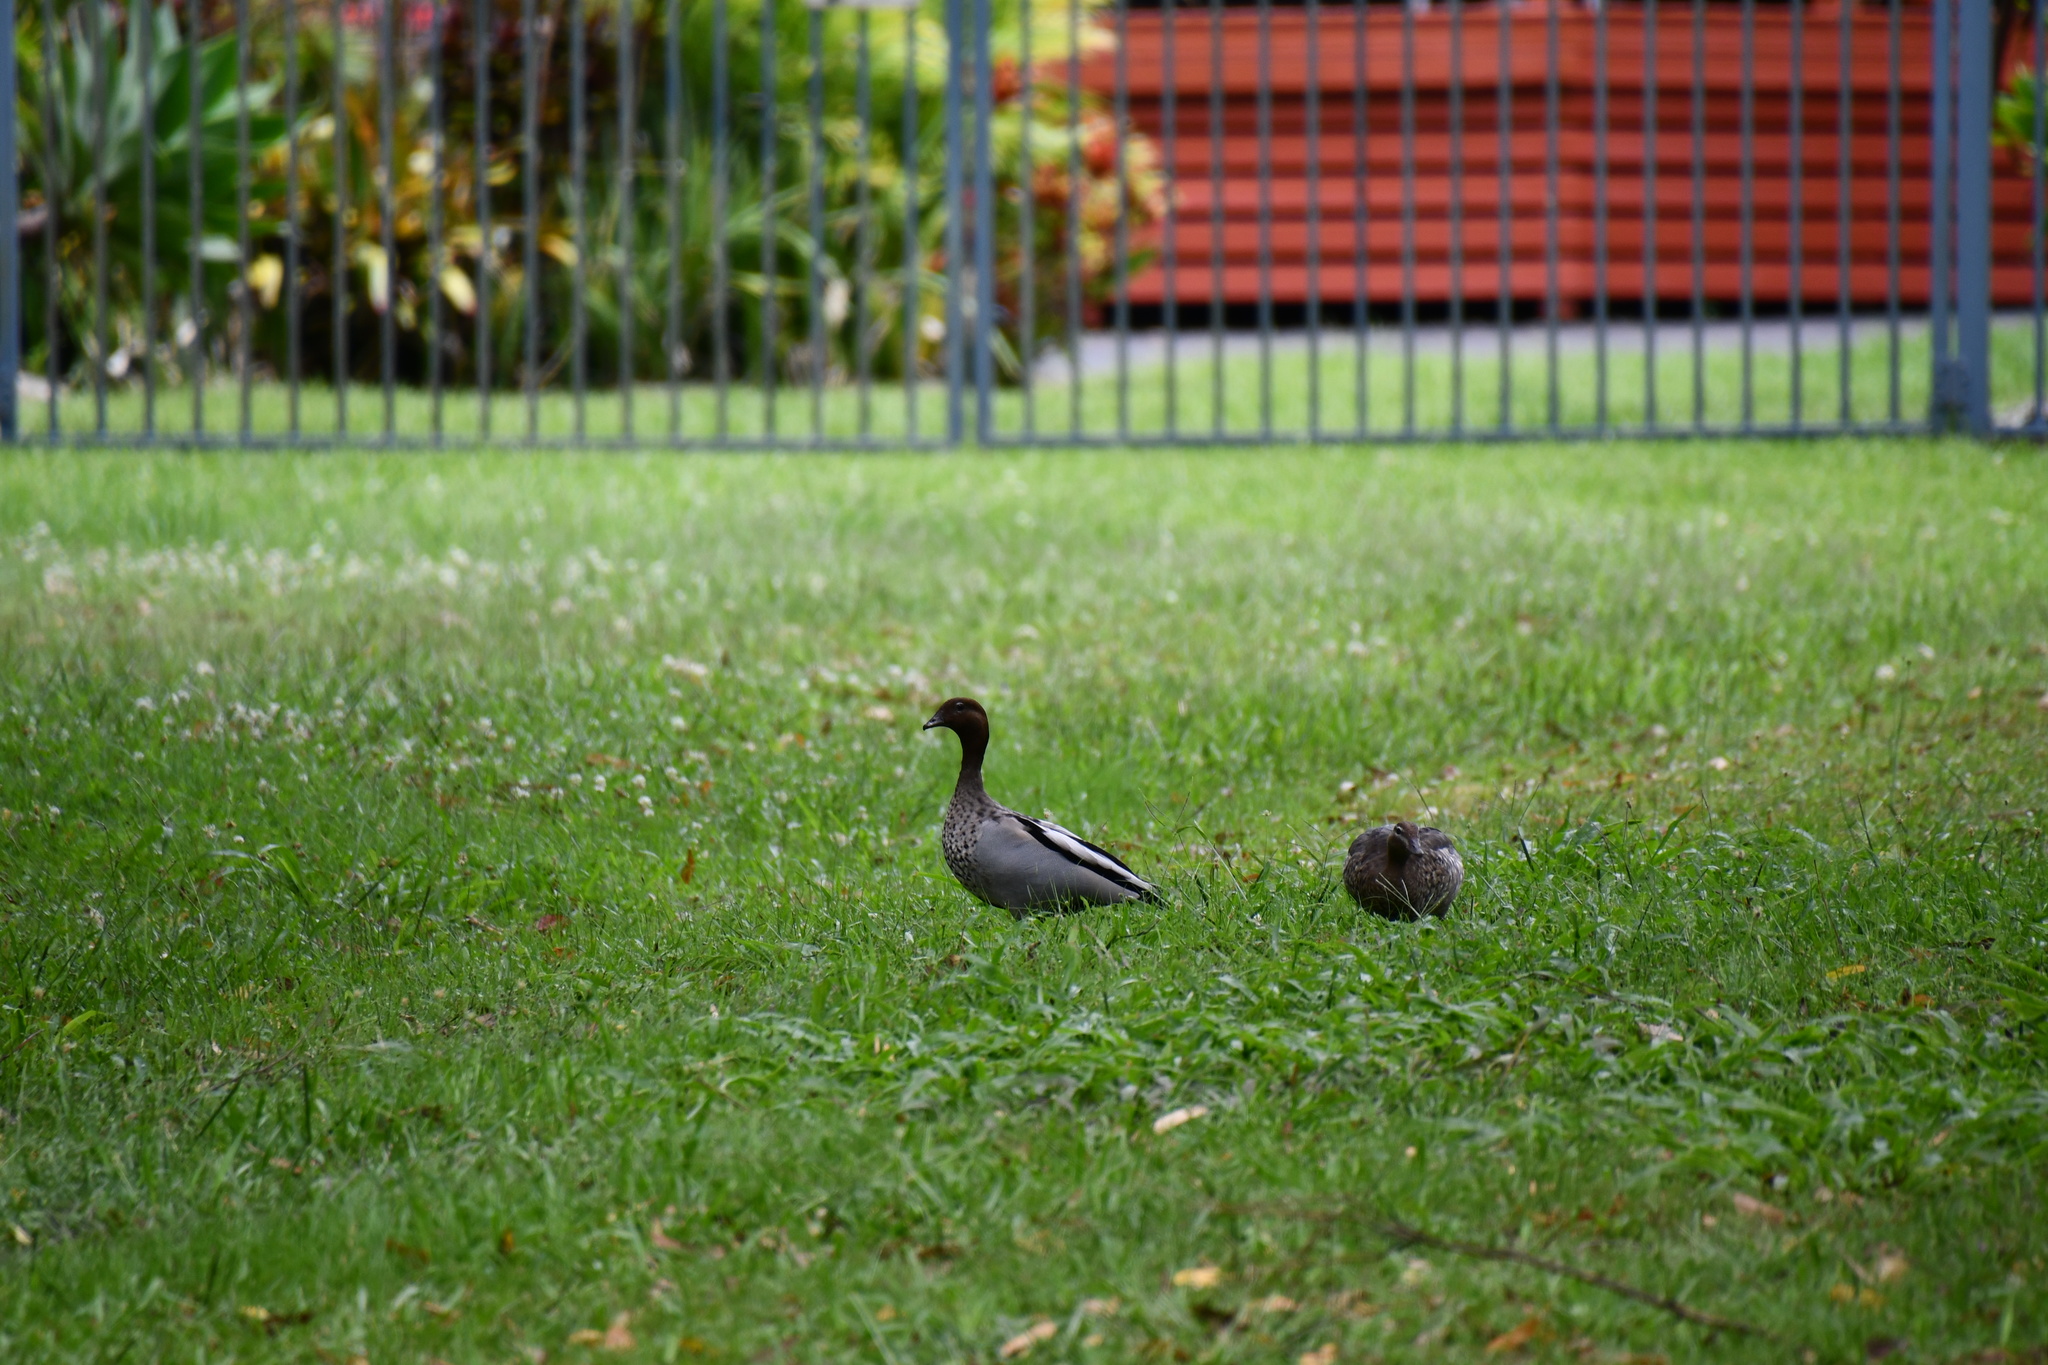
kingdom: Animalia
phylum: Chordata
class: Aves
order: Anseriformes
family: Anatidae
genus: Chenonetta
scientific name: Chenonetta jubata
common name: Maned duck
